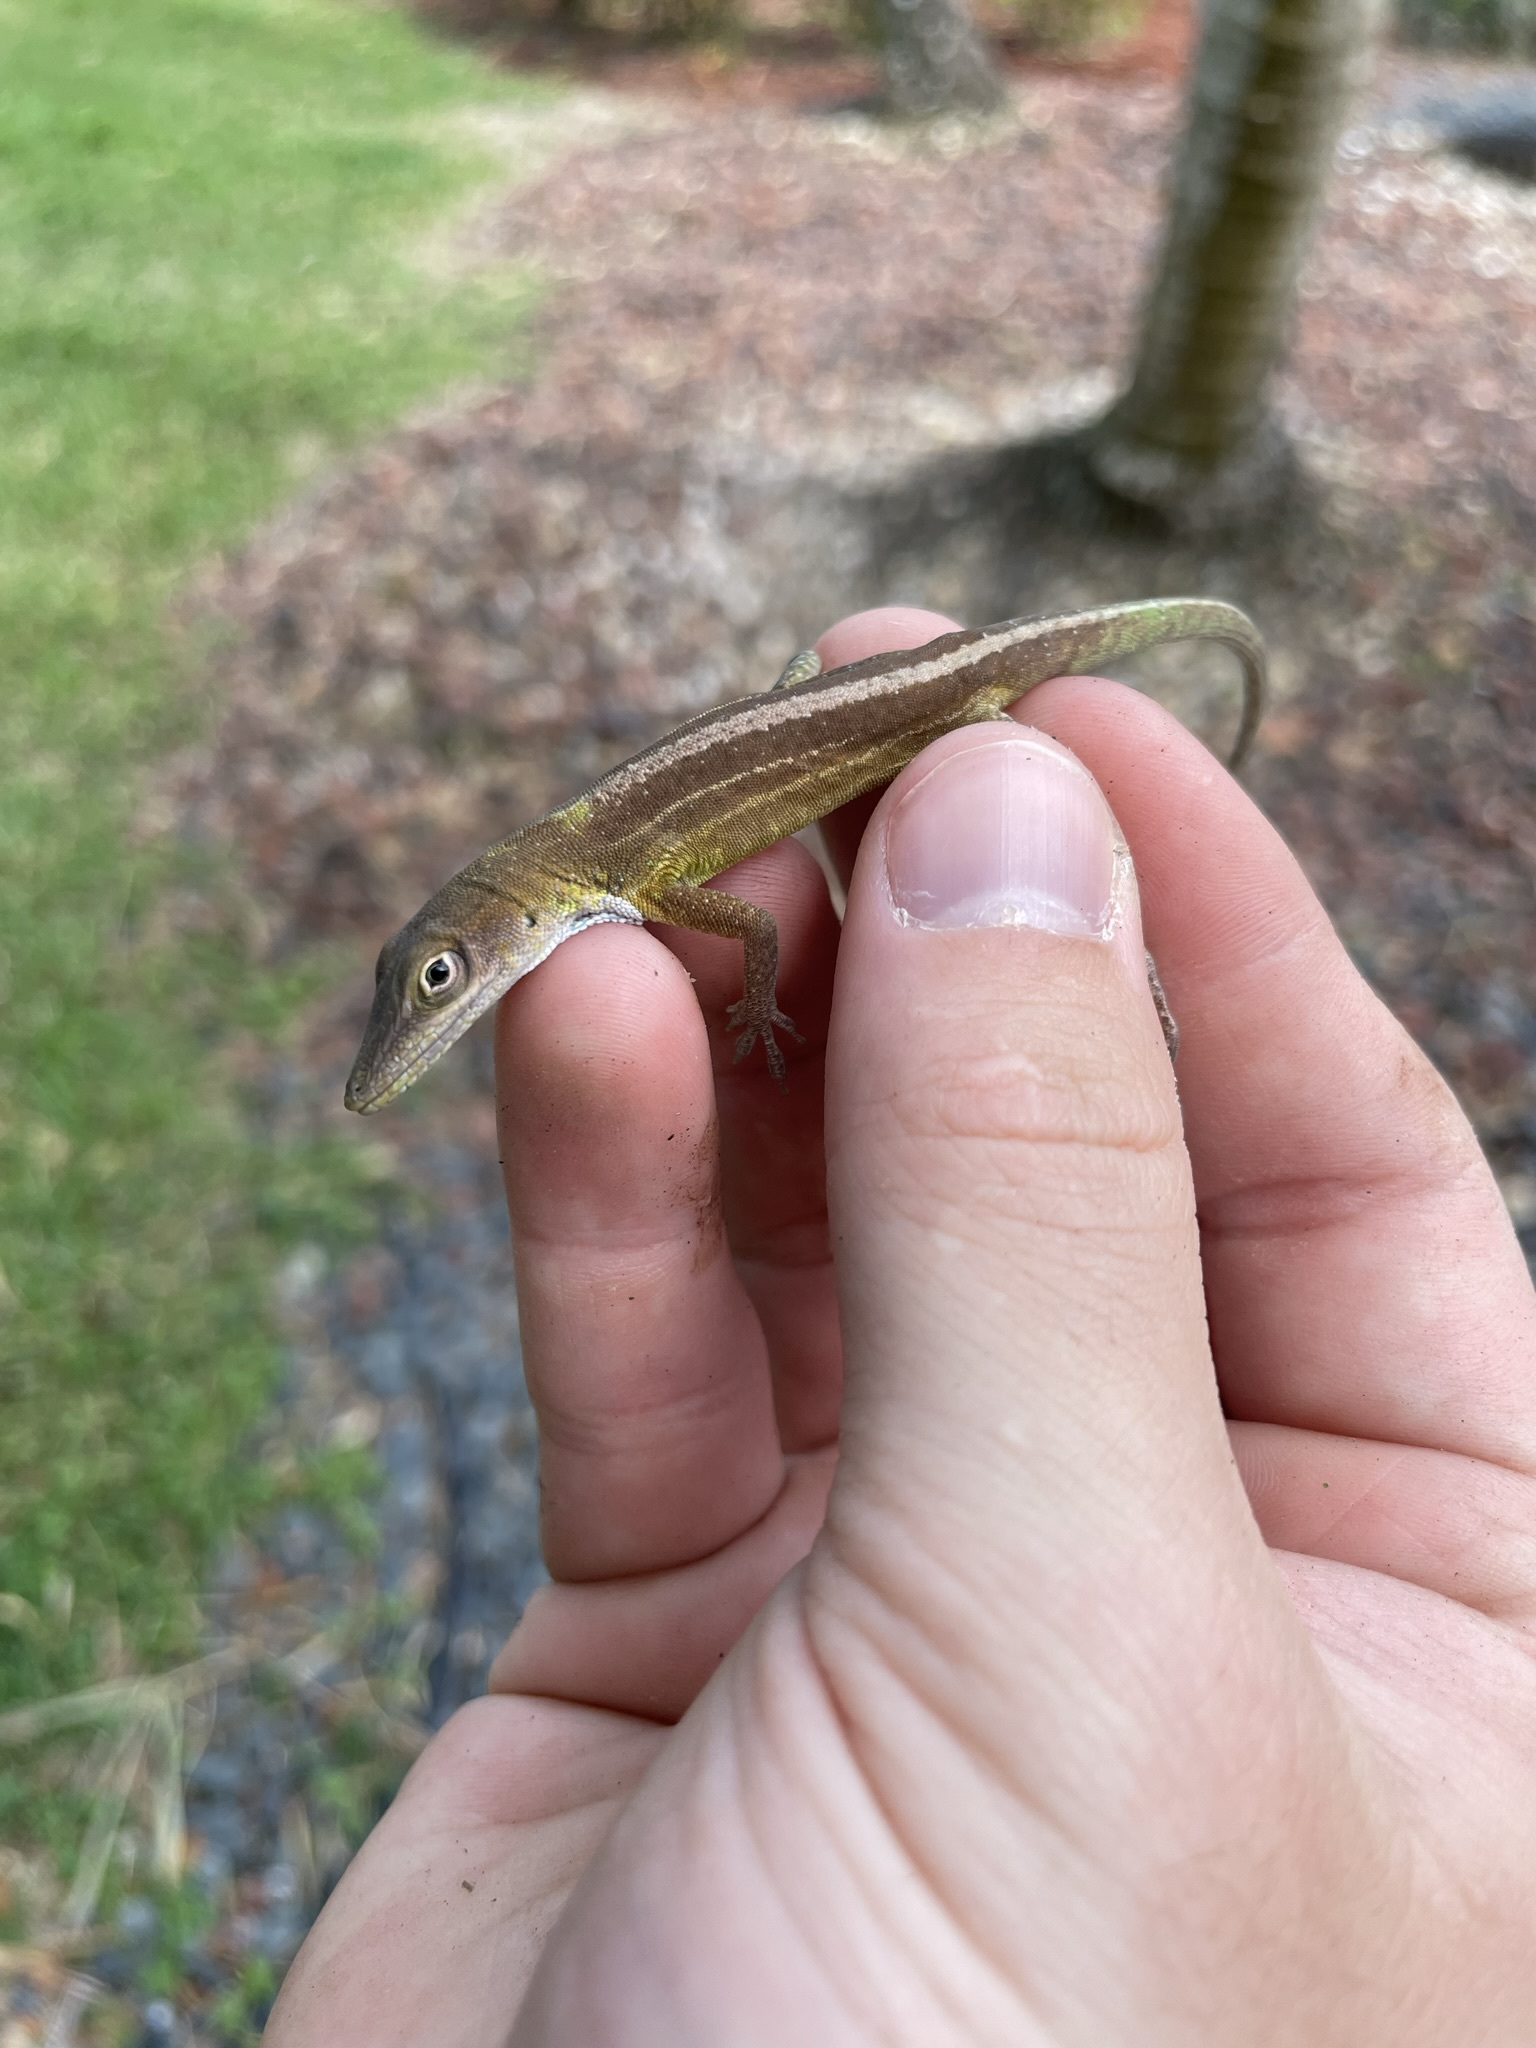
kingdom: Animalia
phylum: Chordata
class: Squamata
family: Dactyloidae
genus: Anolis
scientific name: Anolis chlorocyanus
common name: Hispaniolan green anole
